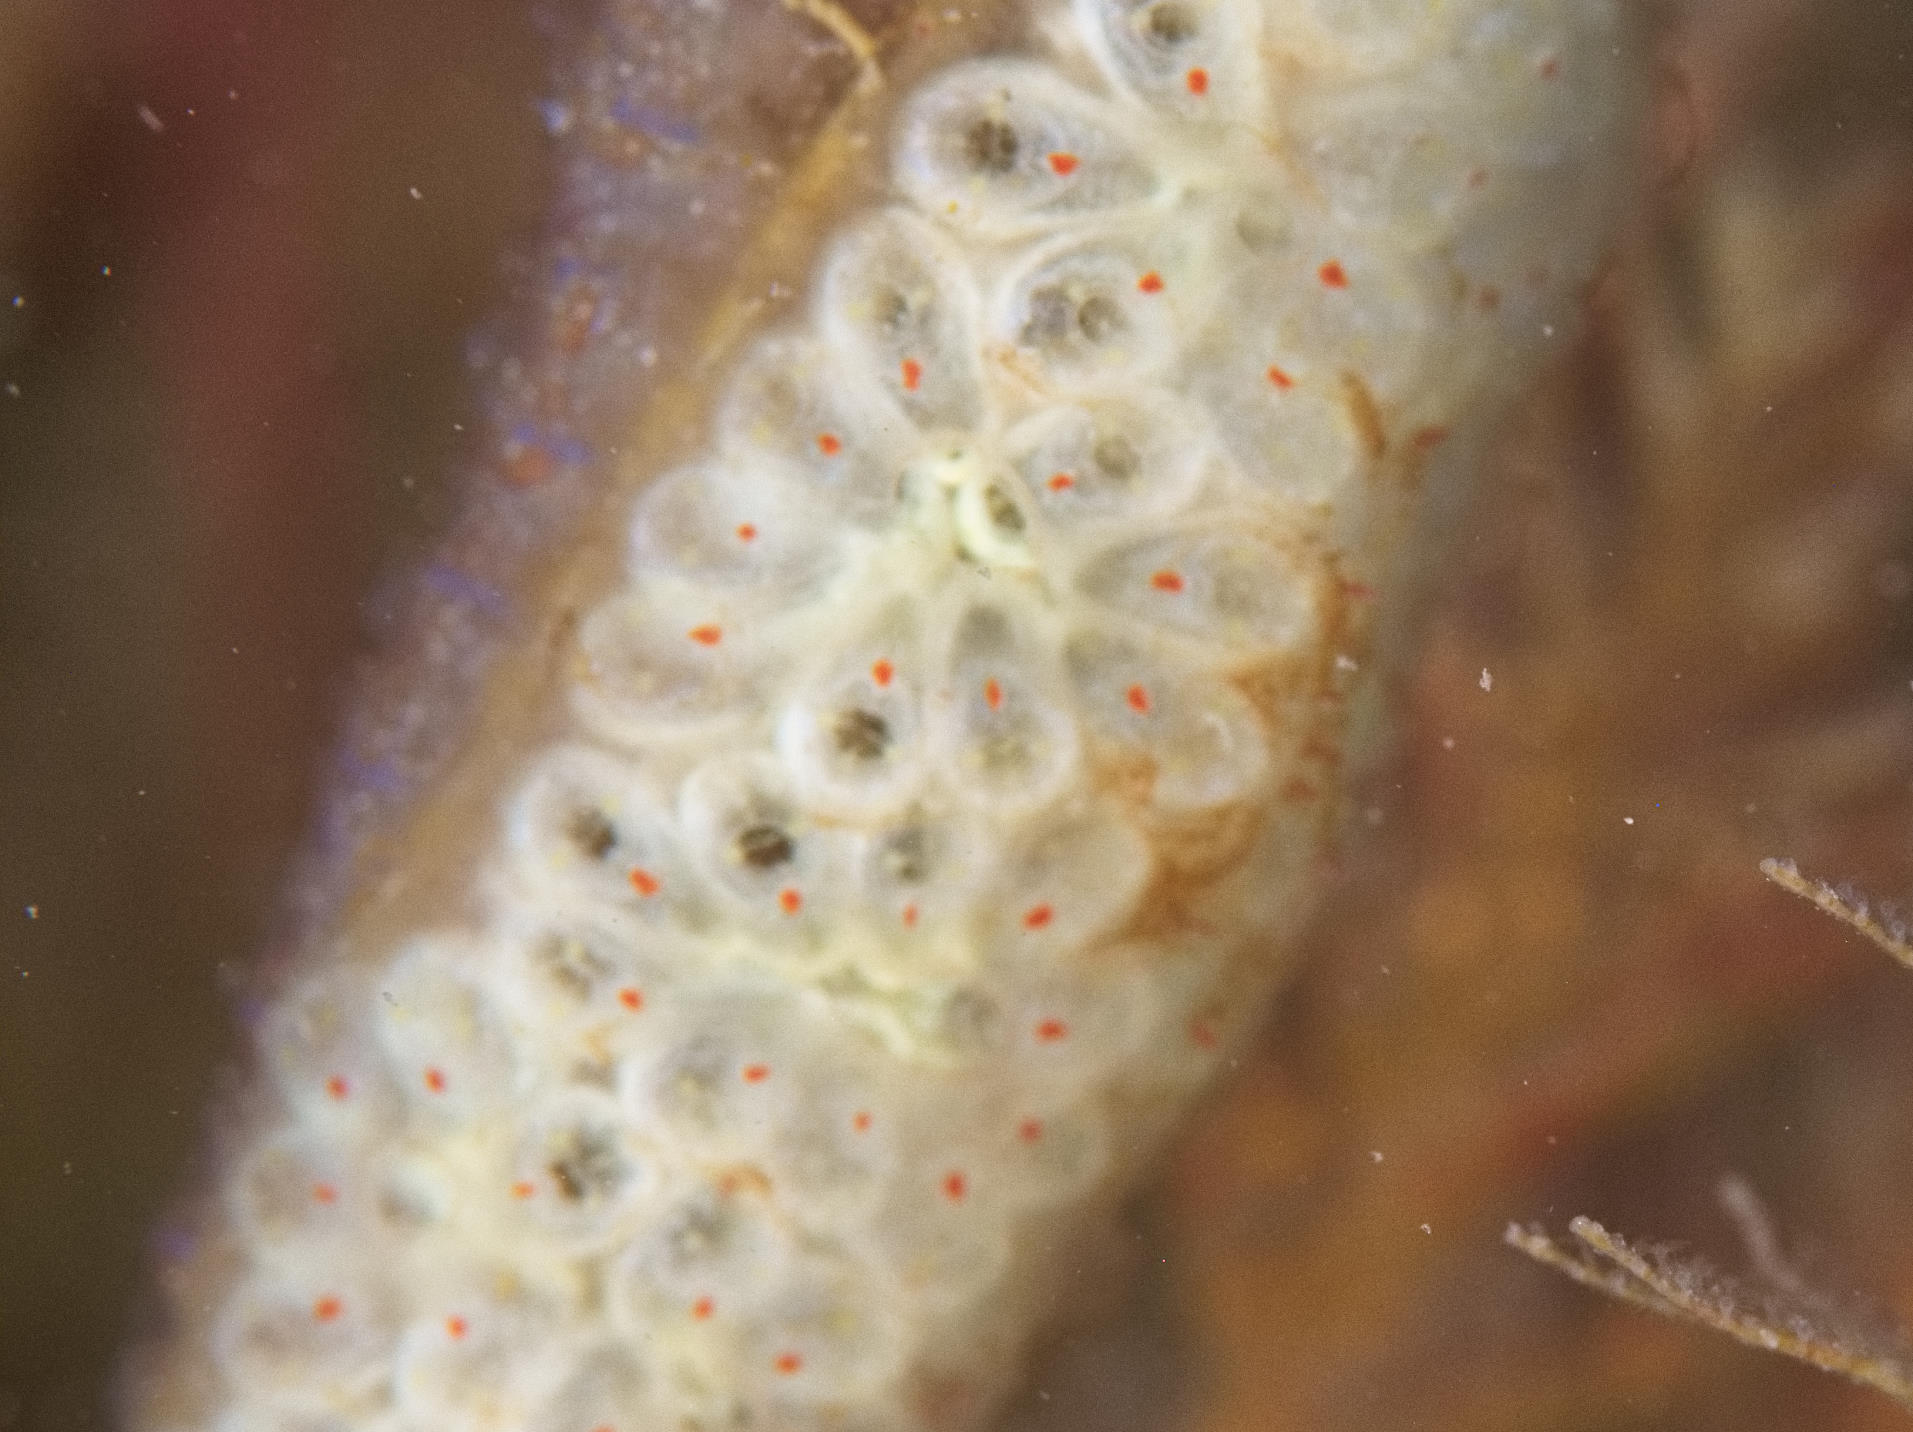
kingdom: Animalia
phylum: Chordata
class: Ascidiacea
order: Stolidobranchia
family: Styelidae
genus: Botryllus
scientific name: Botryllus schlosseri
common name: Golden star tunicate
